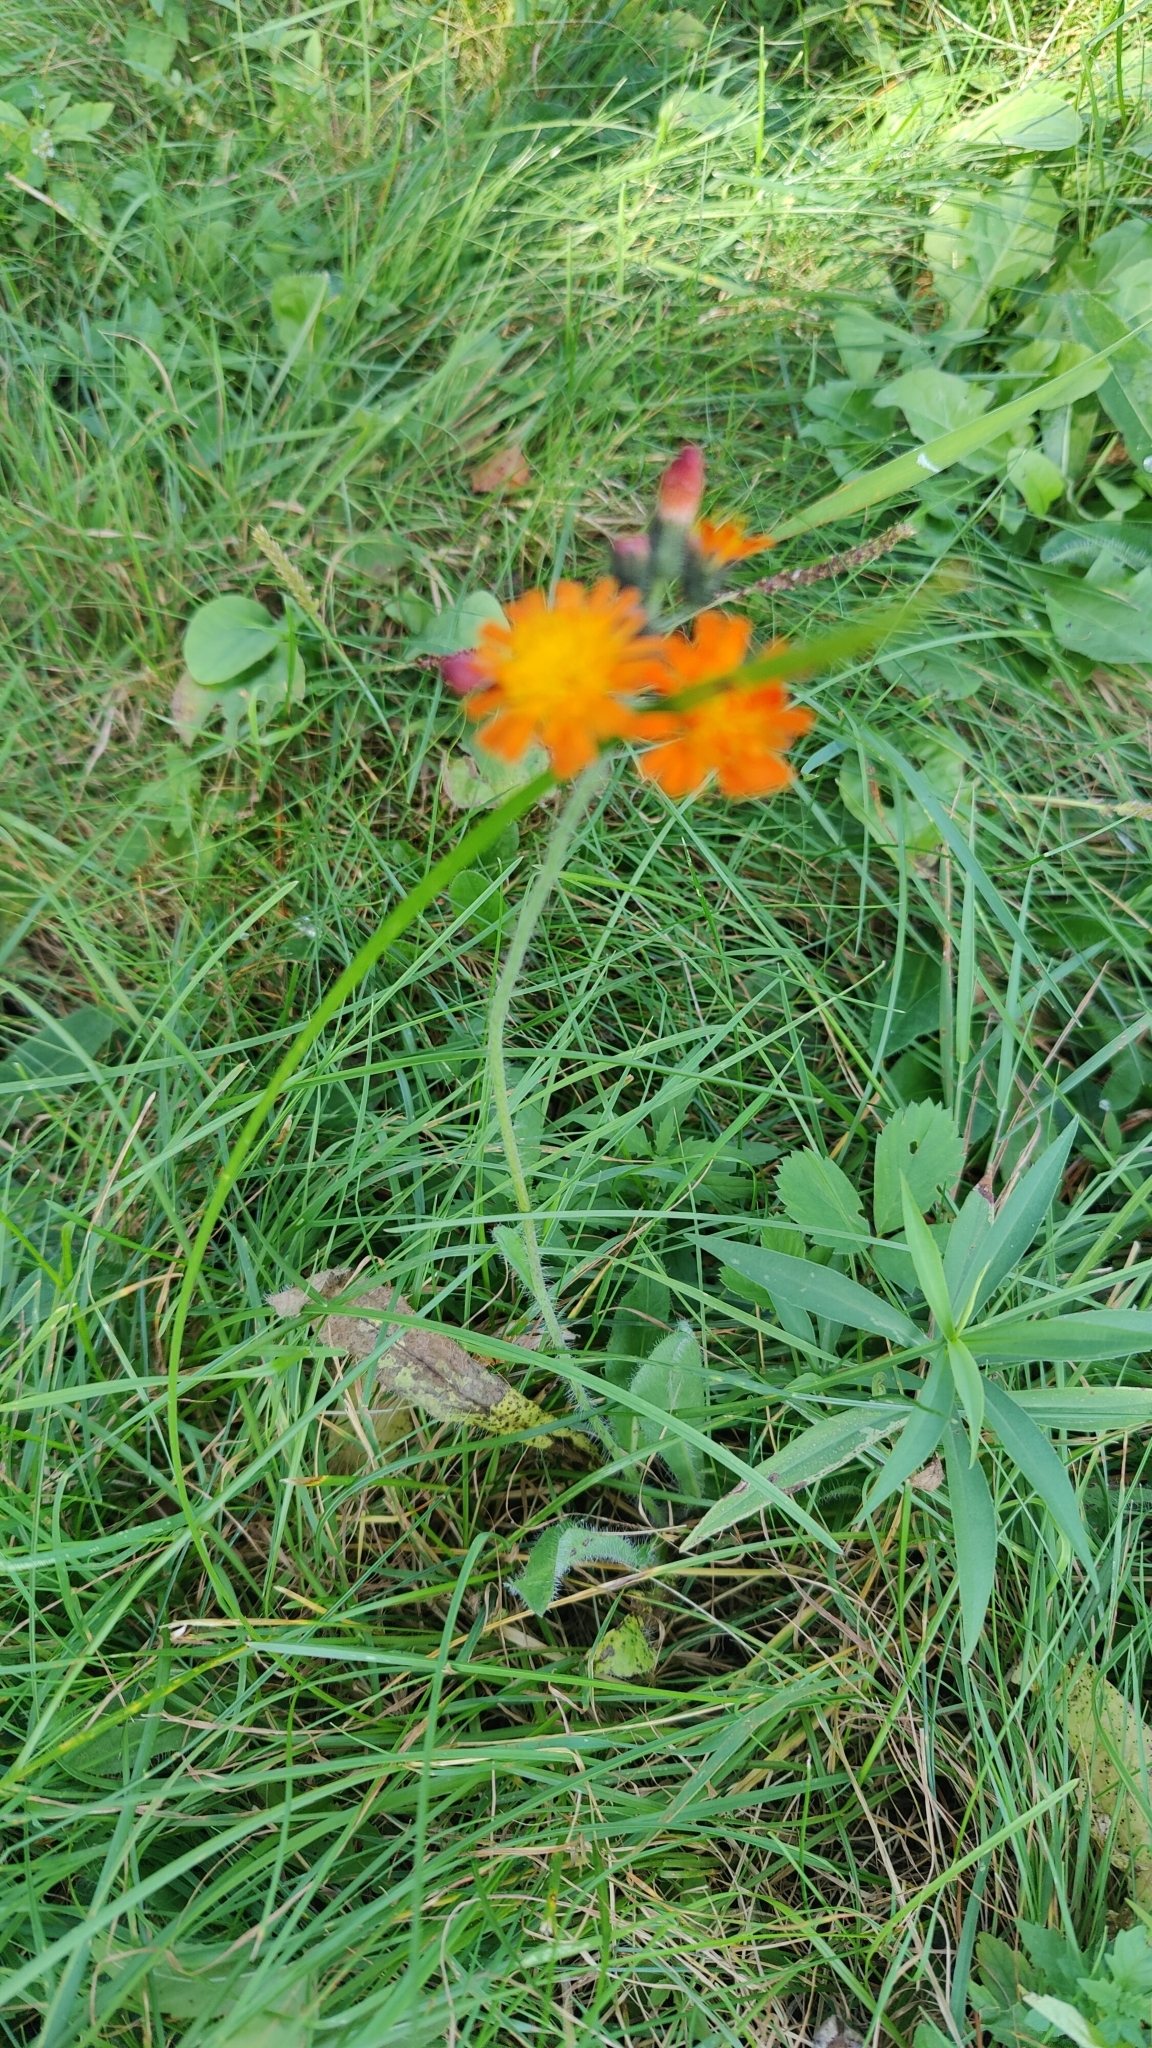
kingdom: Plantae
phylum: Tracheophyta
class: Magnoliopsida
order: Asterales
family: Asteraceae
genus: Pilosella
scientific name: Pilosella aurantiaca
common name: Fox-and-cubs
